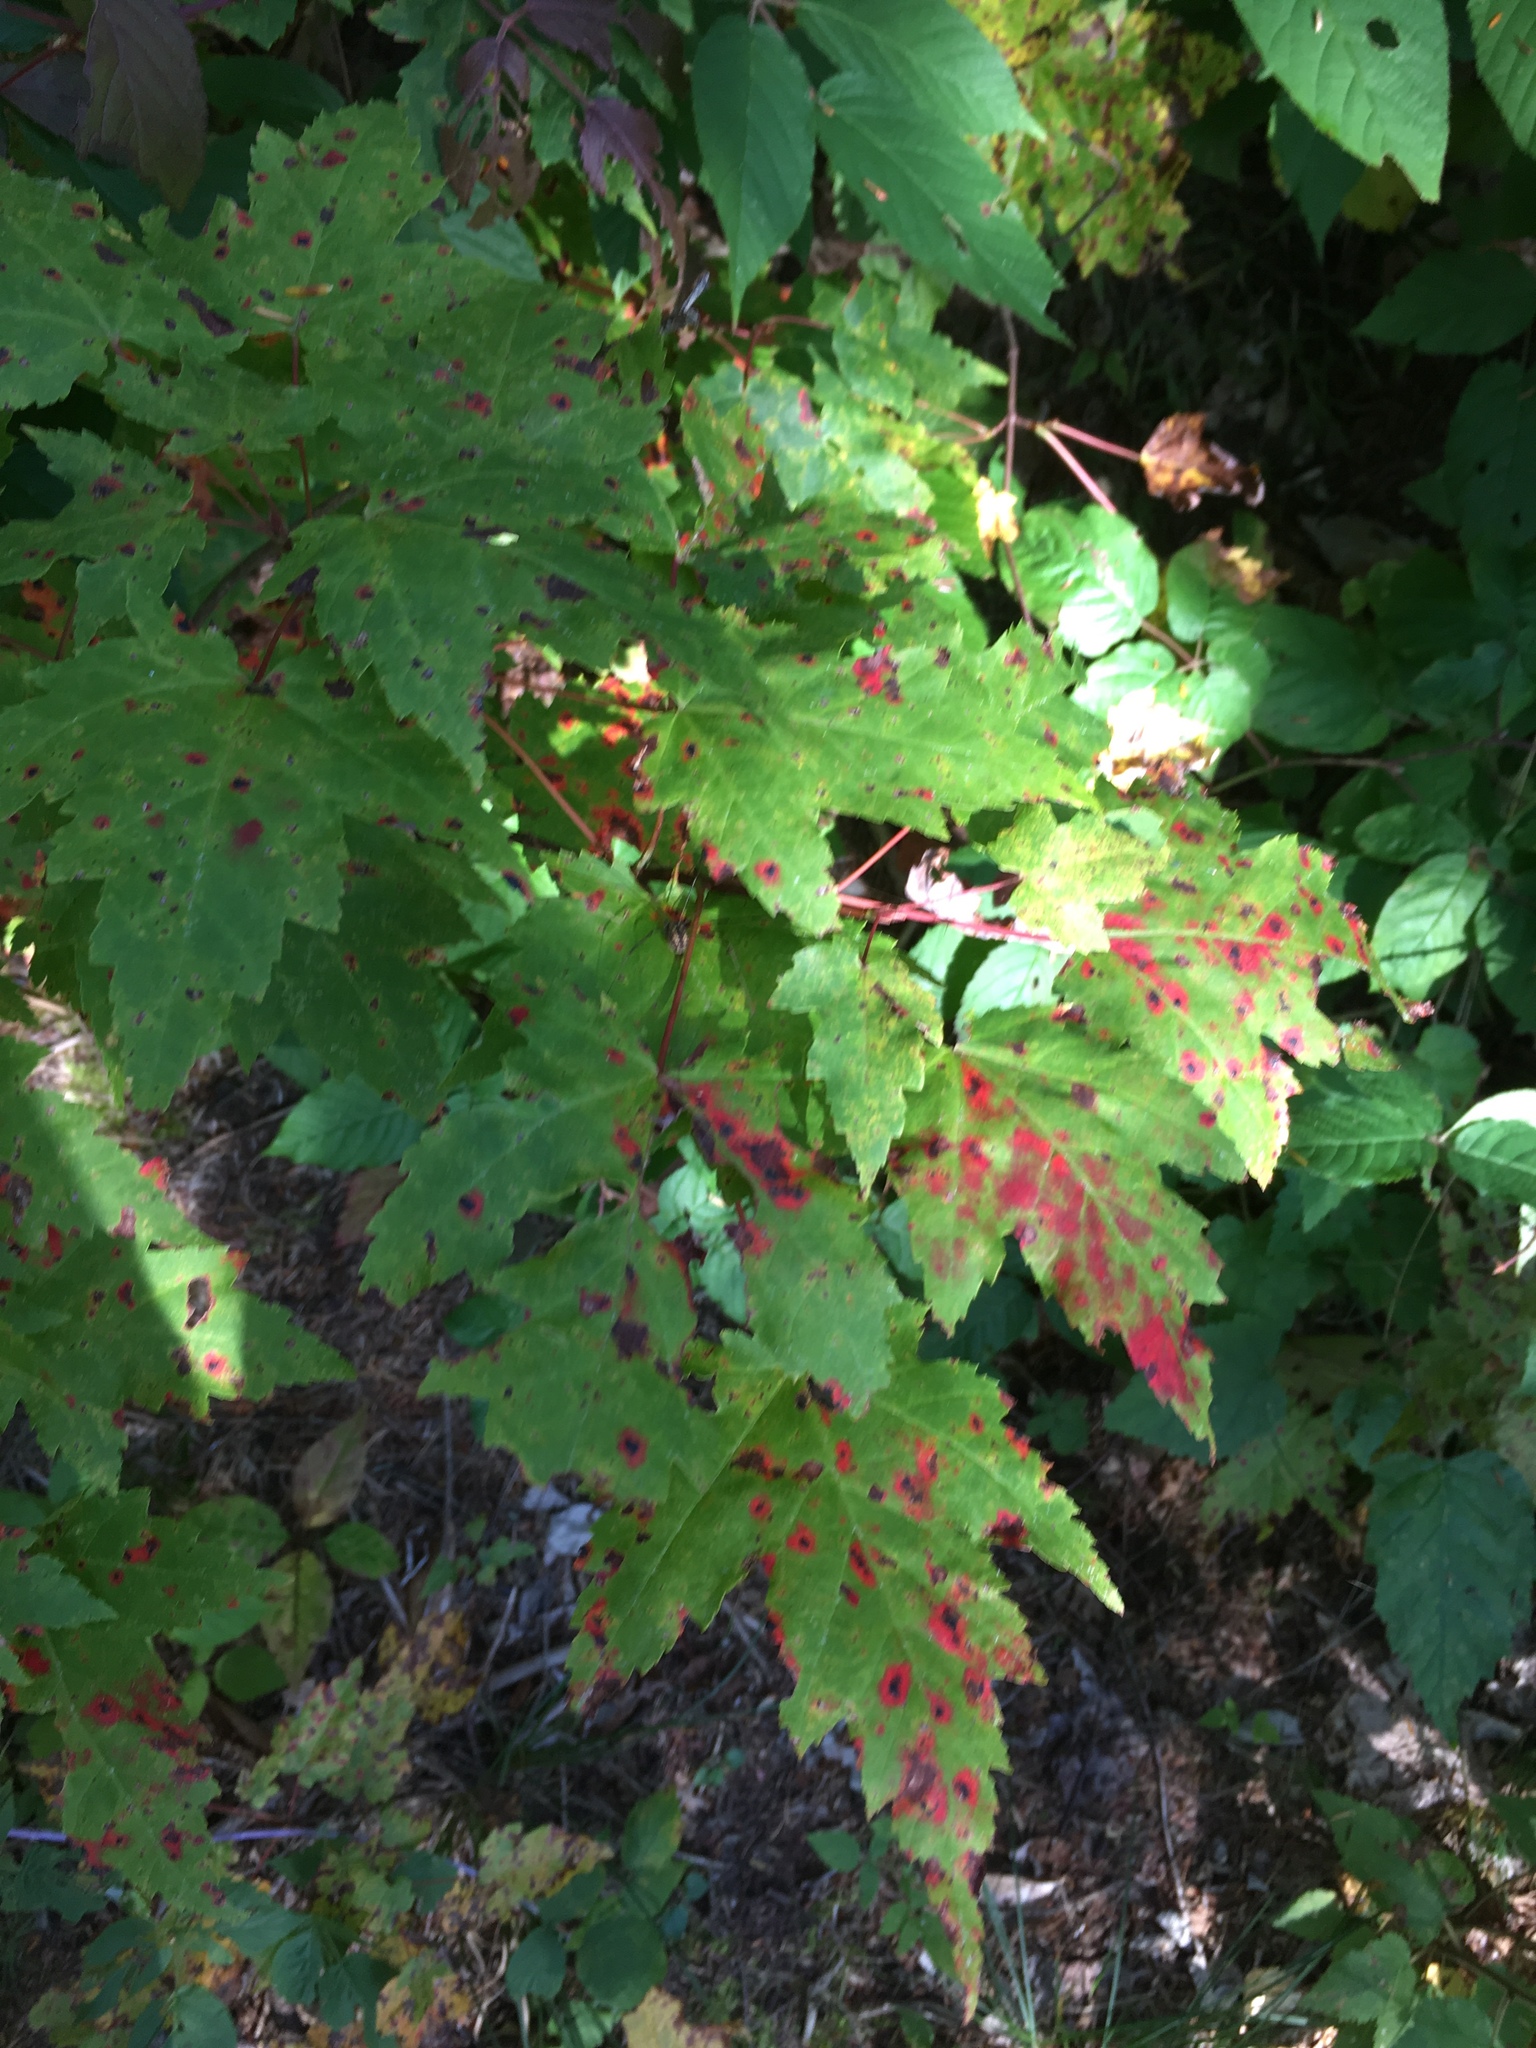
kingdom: Plantae
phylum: Tracheophyta
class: Magnoliopsida
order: Sapindales
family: Sapindaceae
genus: Acer
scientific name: Acer rubrum
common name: Red maple
